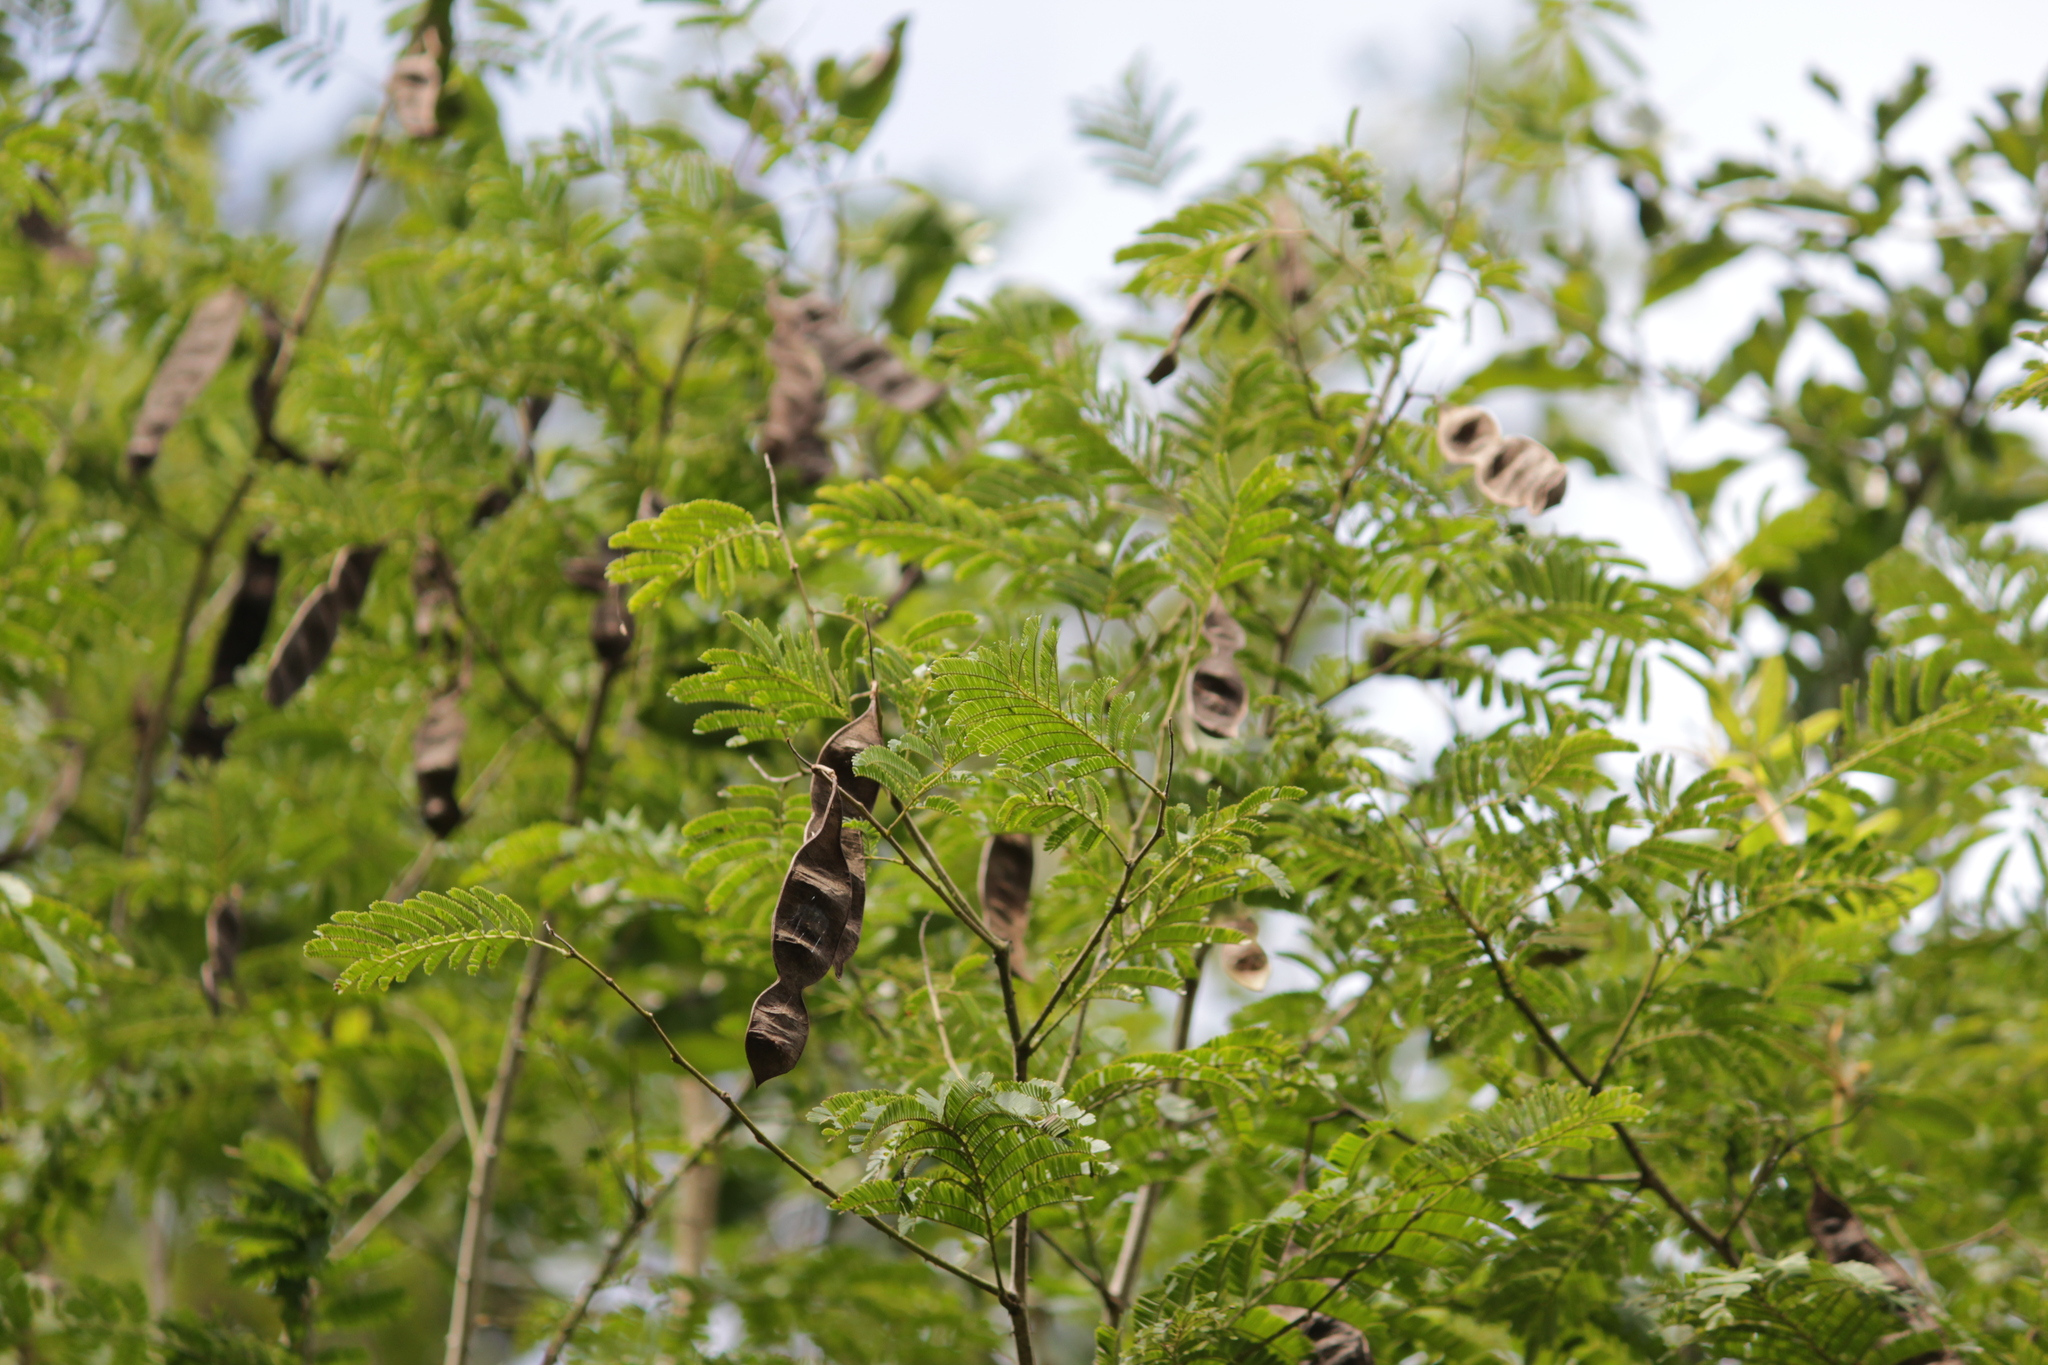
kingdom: Plantae
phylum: Tracheophyta
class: Magnoliopsida
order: Fabales
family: Fabaceae
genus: Senegalia
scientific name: Senegalia kraussiana
